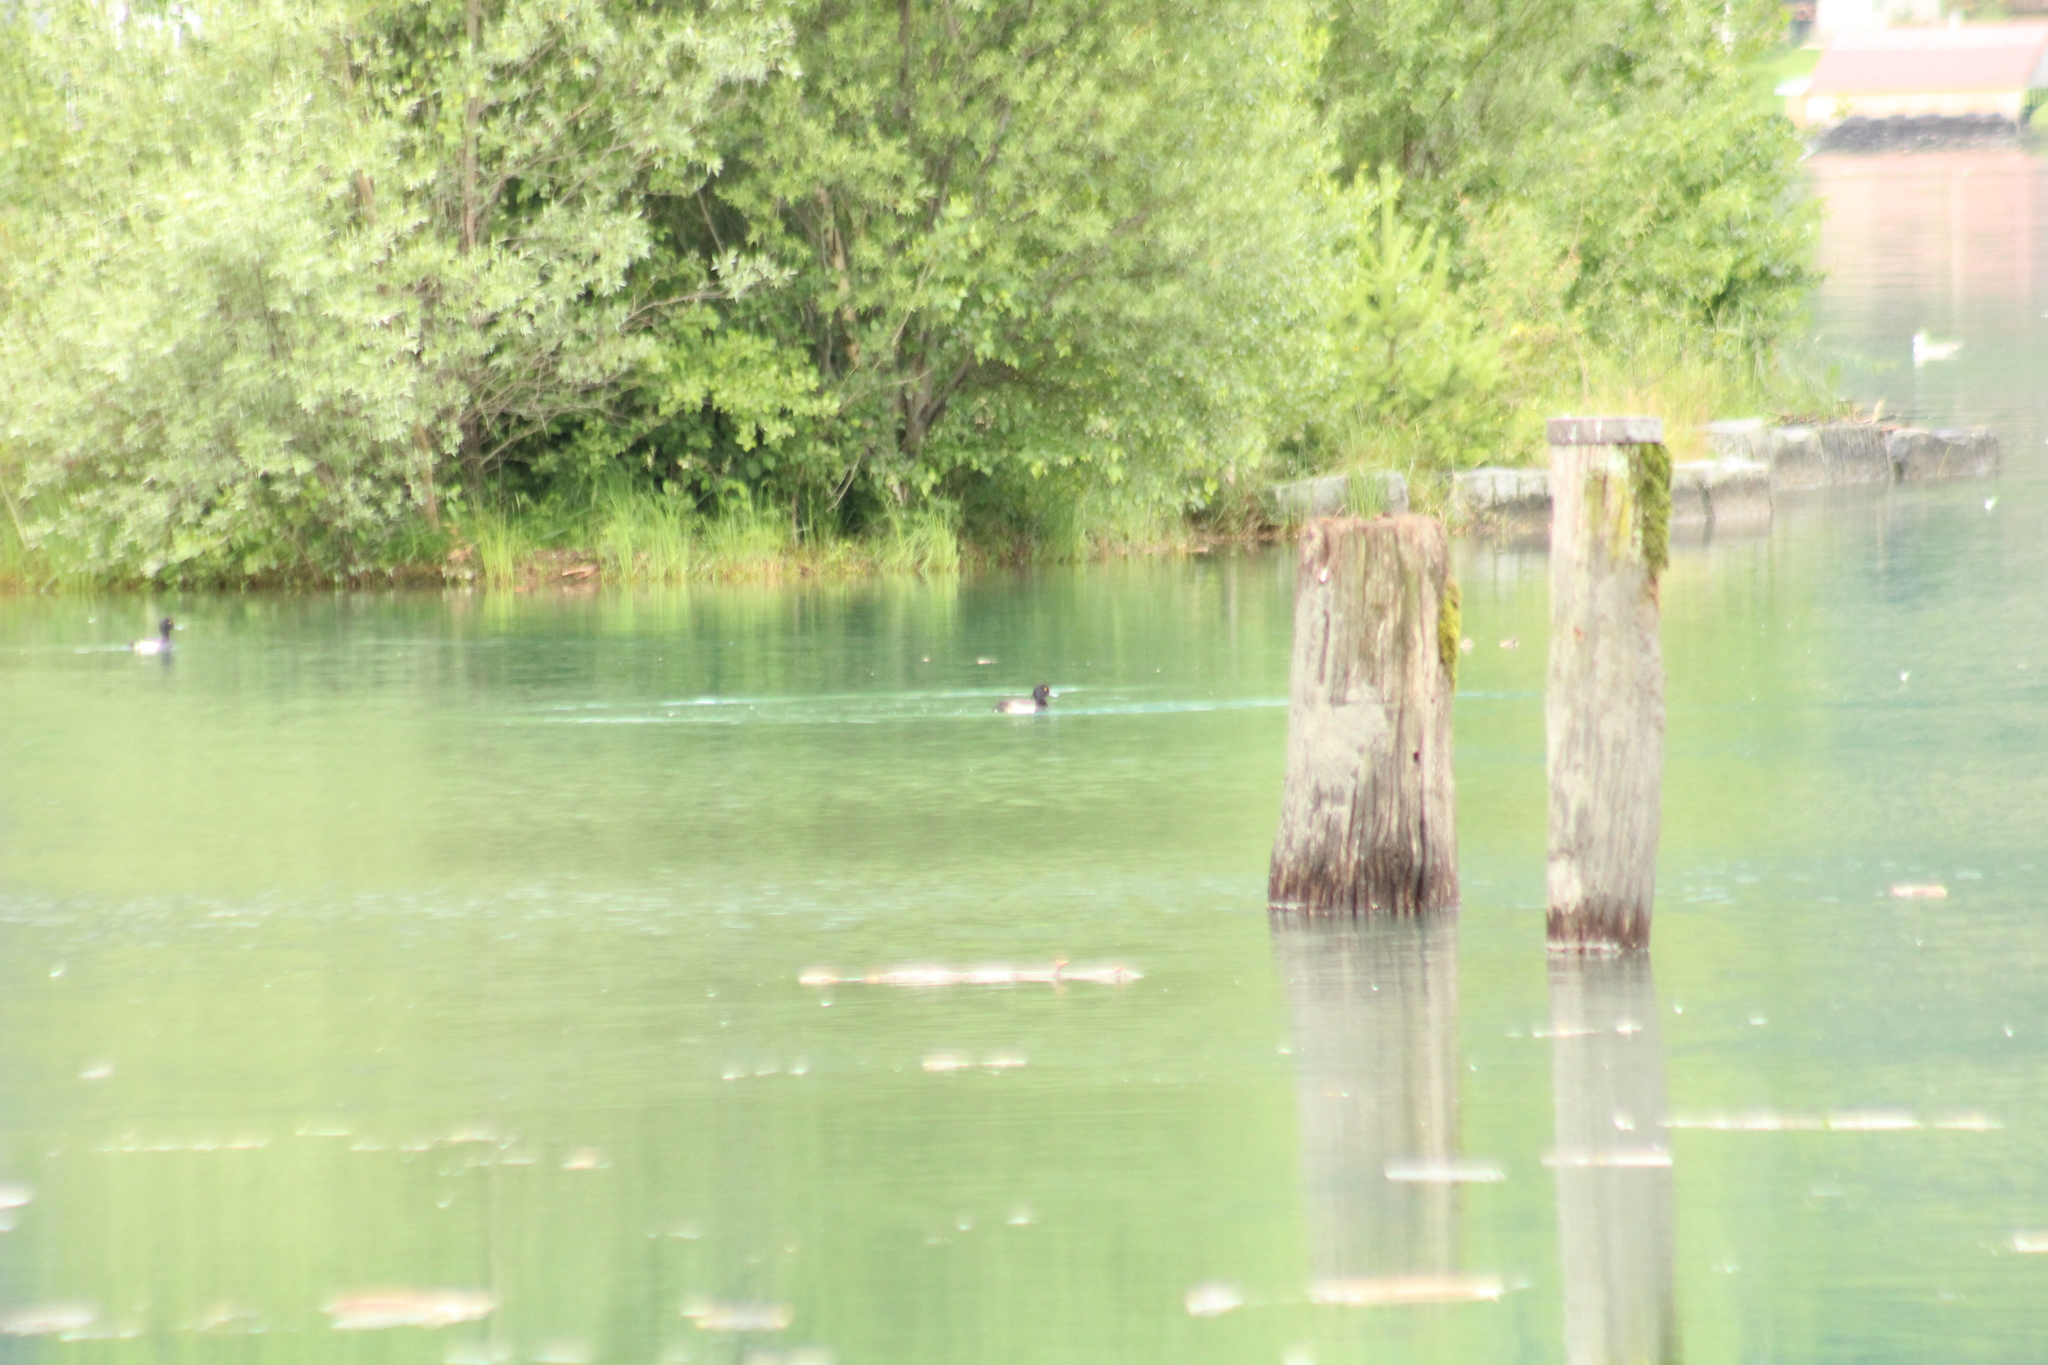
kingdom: Animalia
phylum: Chordata
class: Aves
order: Anseriformes
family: Anatidae
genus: Aythya
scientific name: Aythya fuligula
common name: Tufted duck
